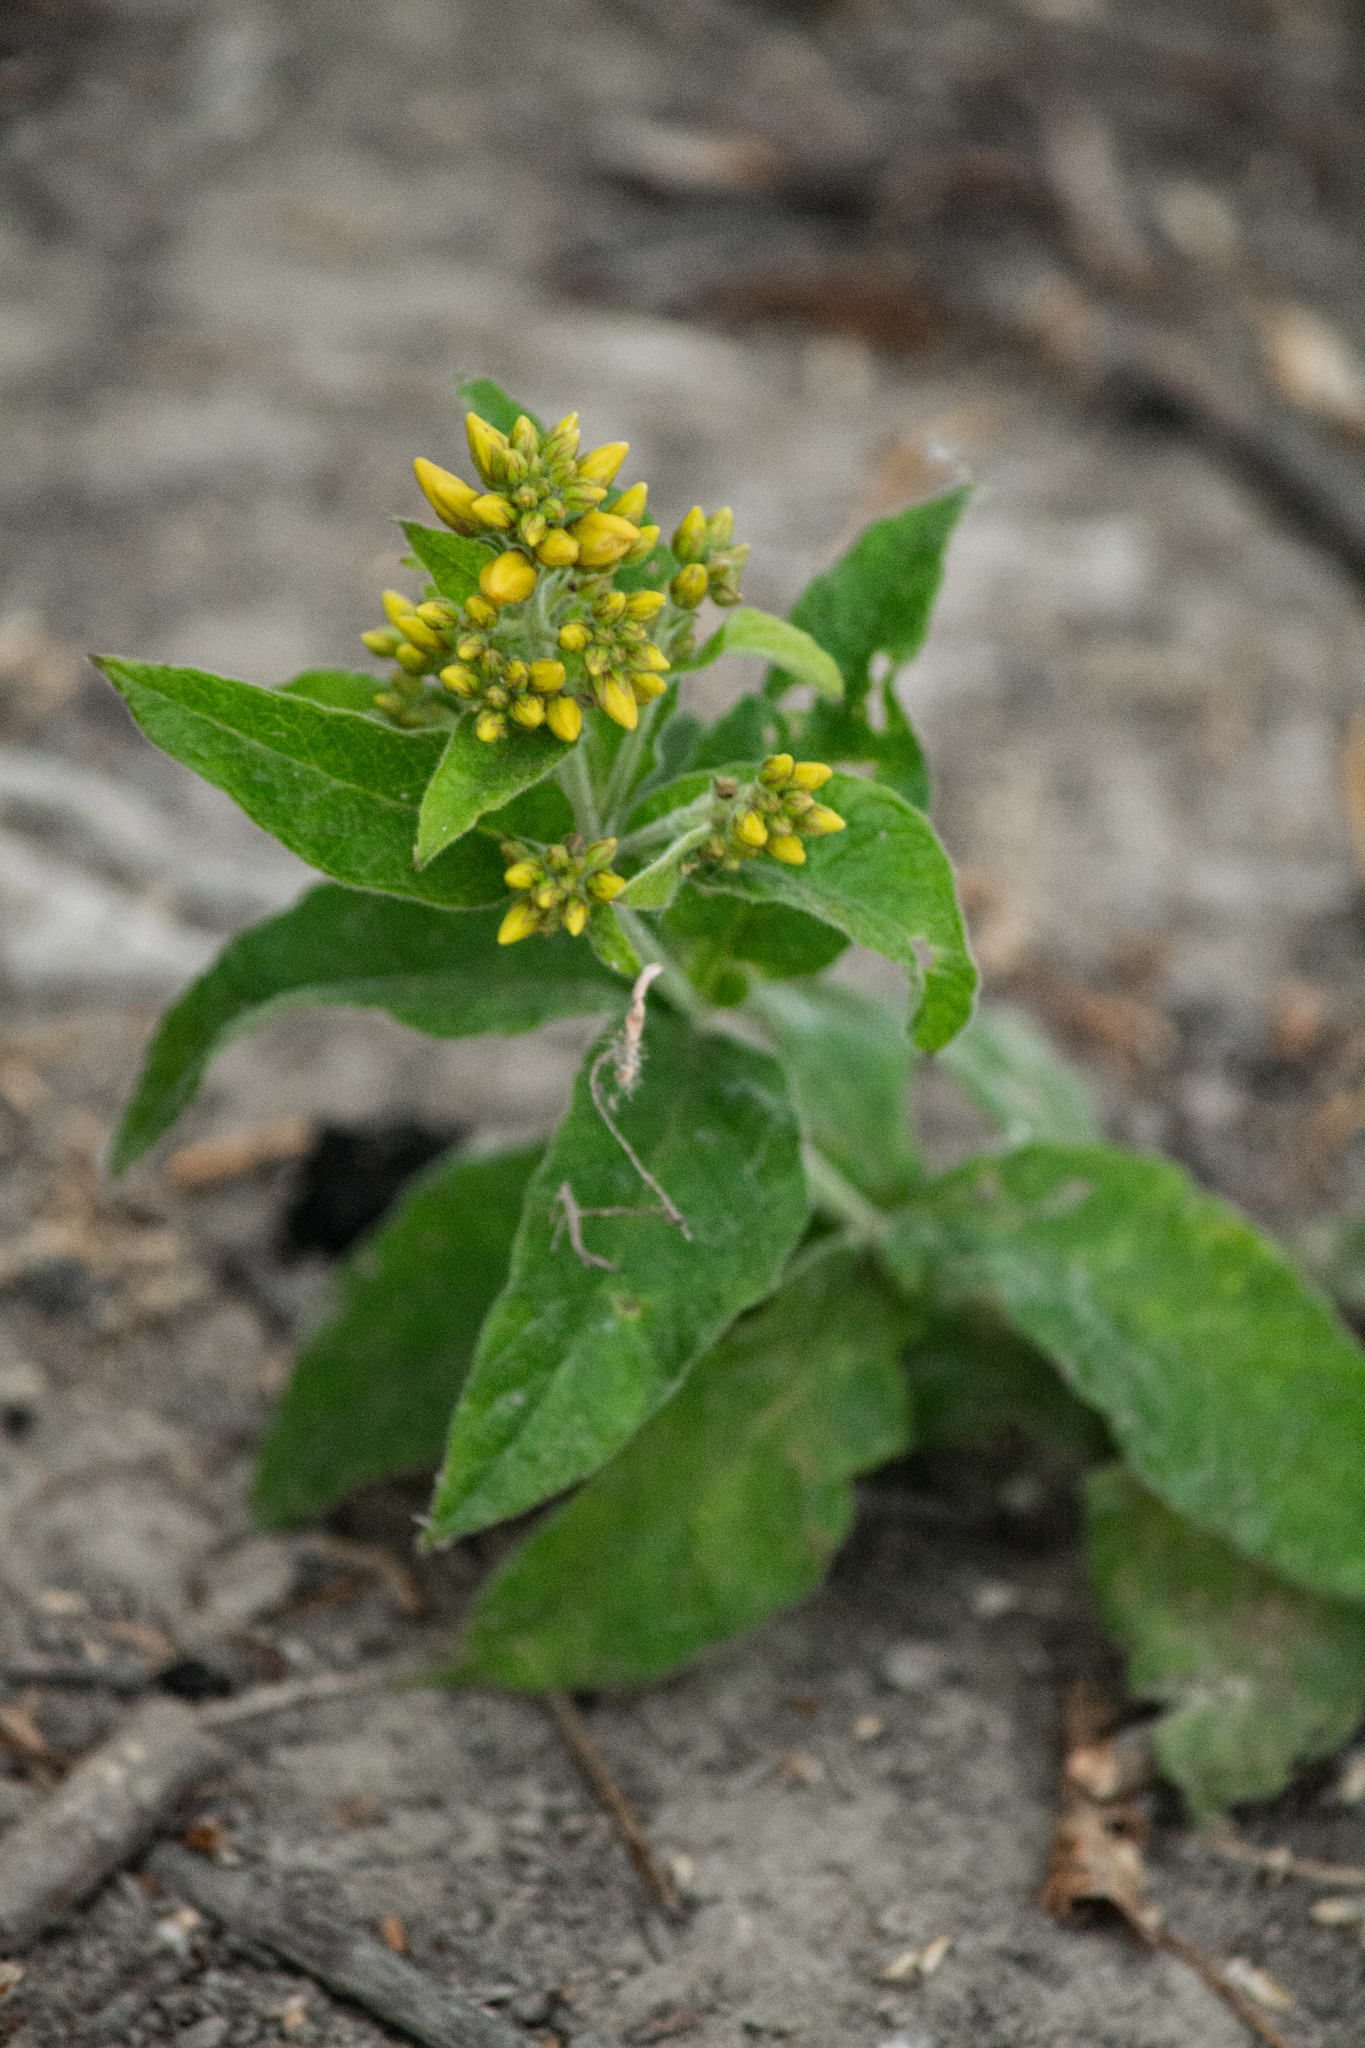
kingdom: Plantae
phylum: Tracheophyta
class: Magnoliopsida
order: Ericales
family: Primulaceae
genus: Lysimachia
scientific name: Lysimachia vulgaris
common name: Yellow loosestrife
